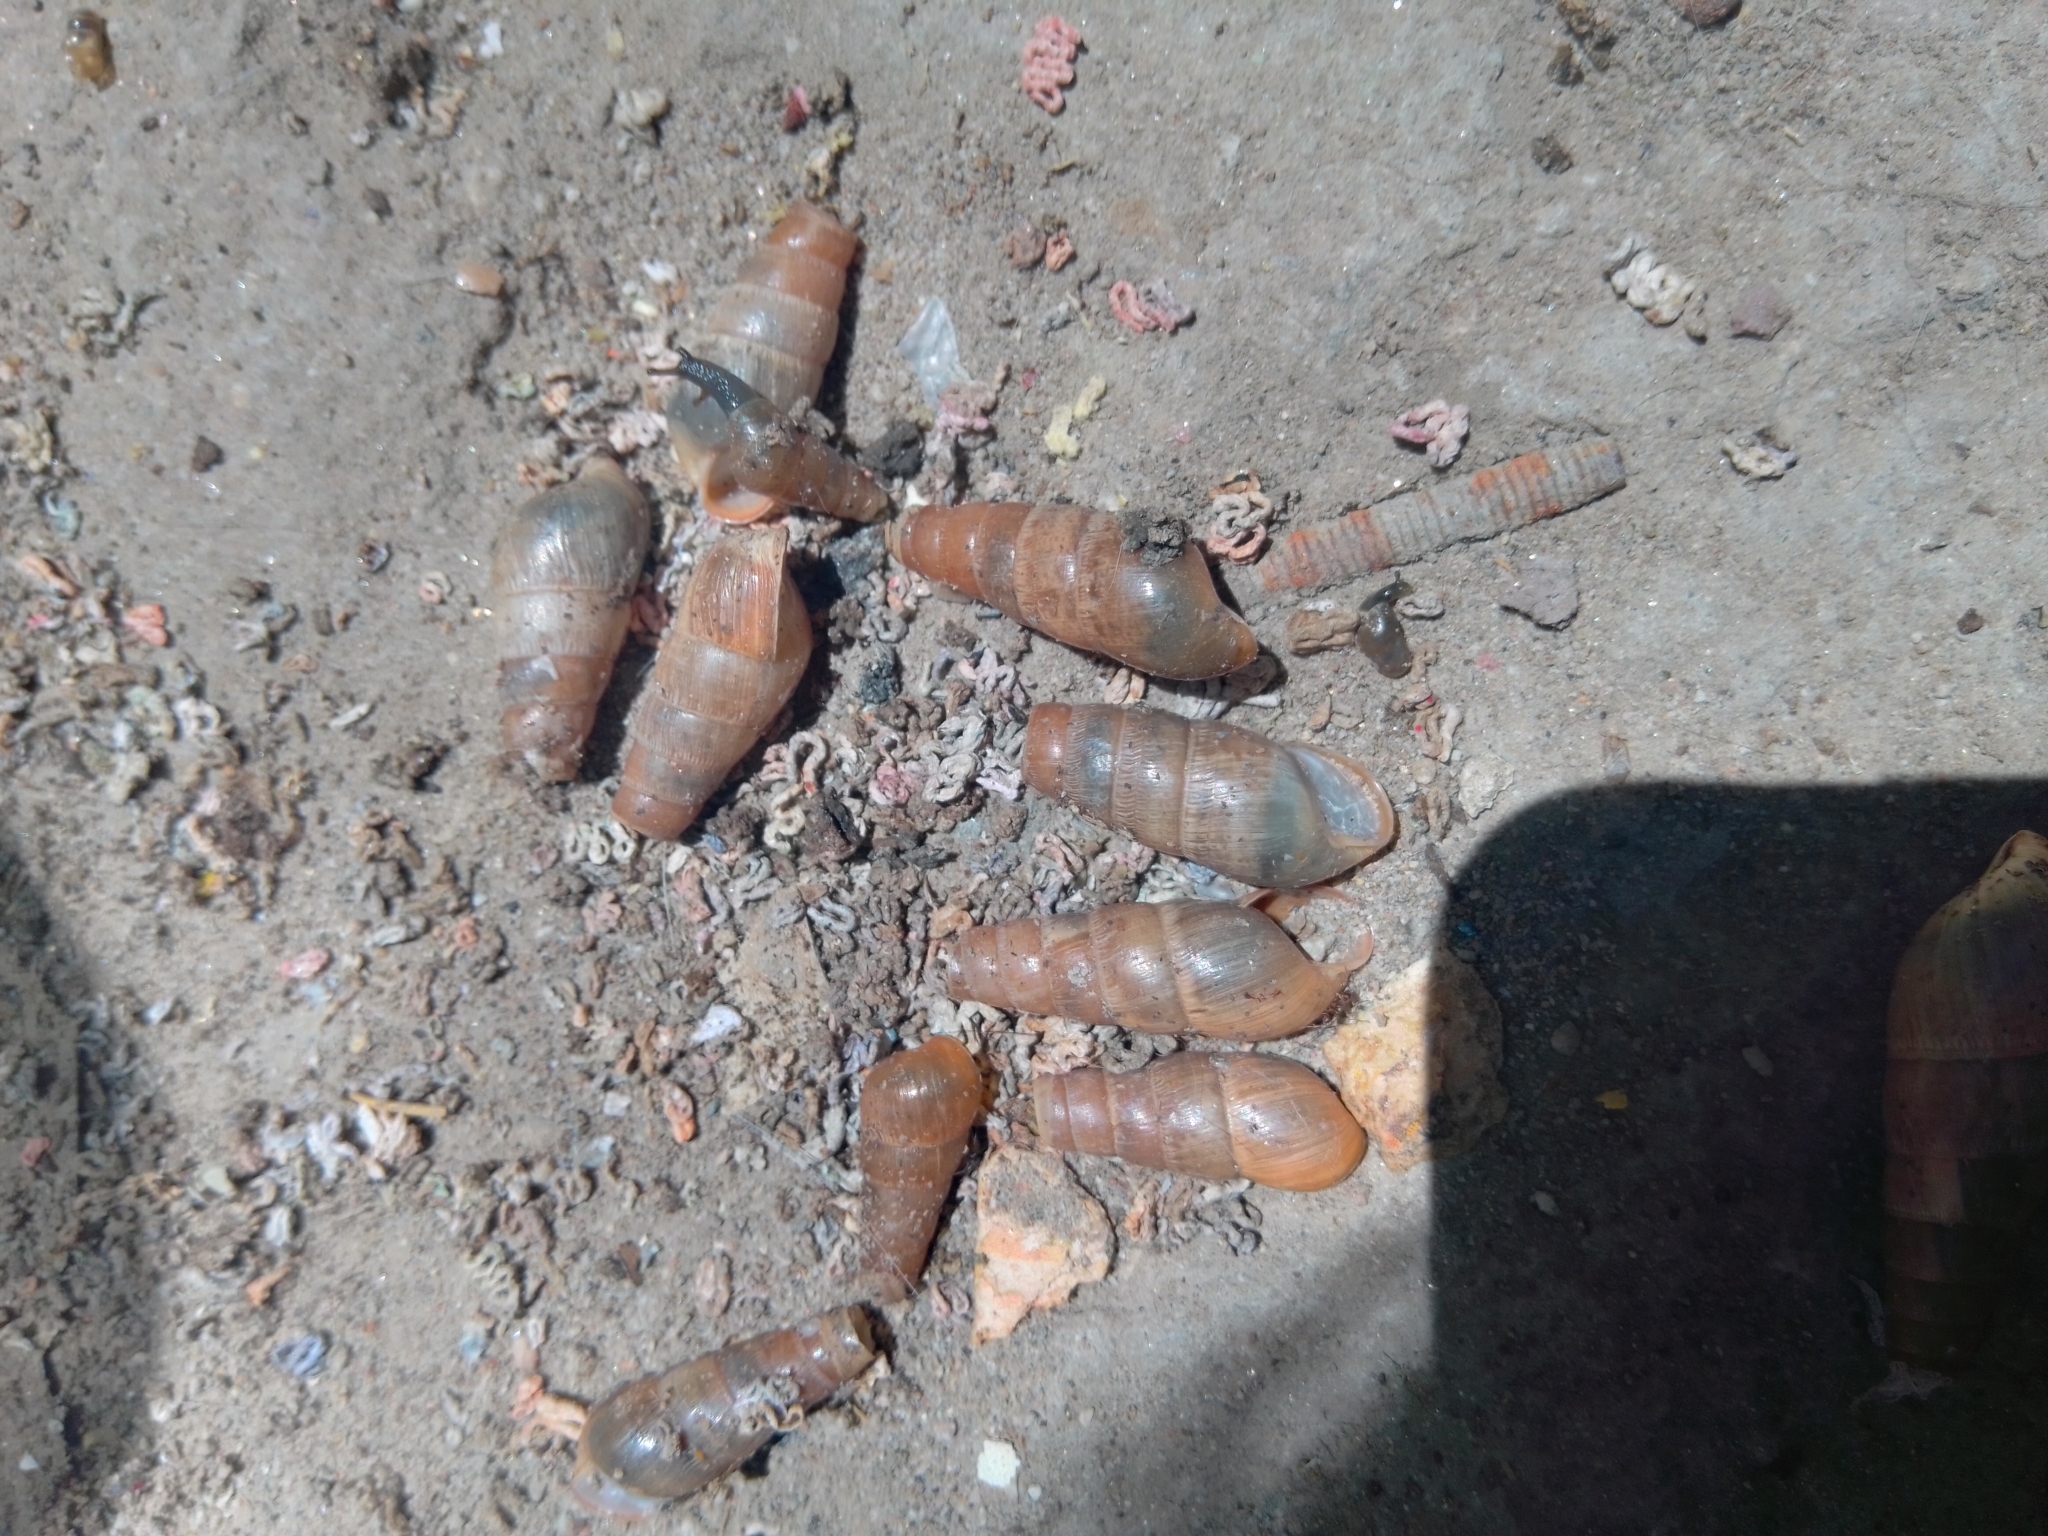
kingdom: Animalia
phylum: Mollusca
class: Gastropoda
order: Stylommatophora
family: Achatinidae
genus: Rumina
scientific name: Rumina decollata
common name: Decollate snail
